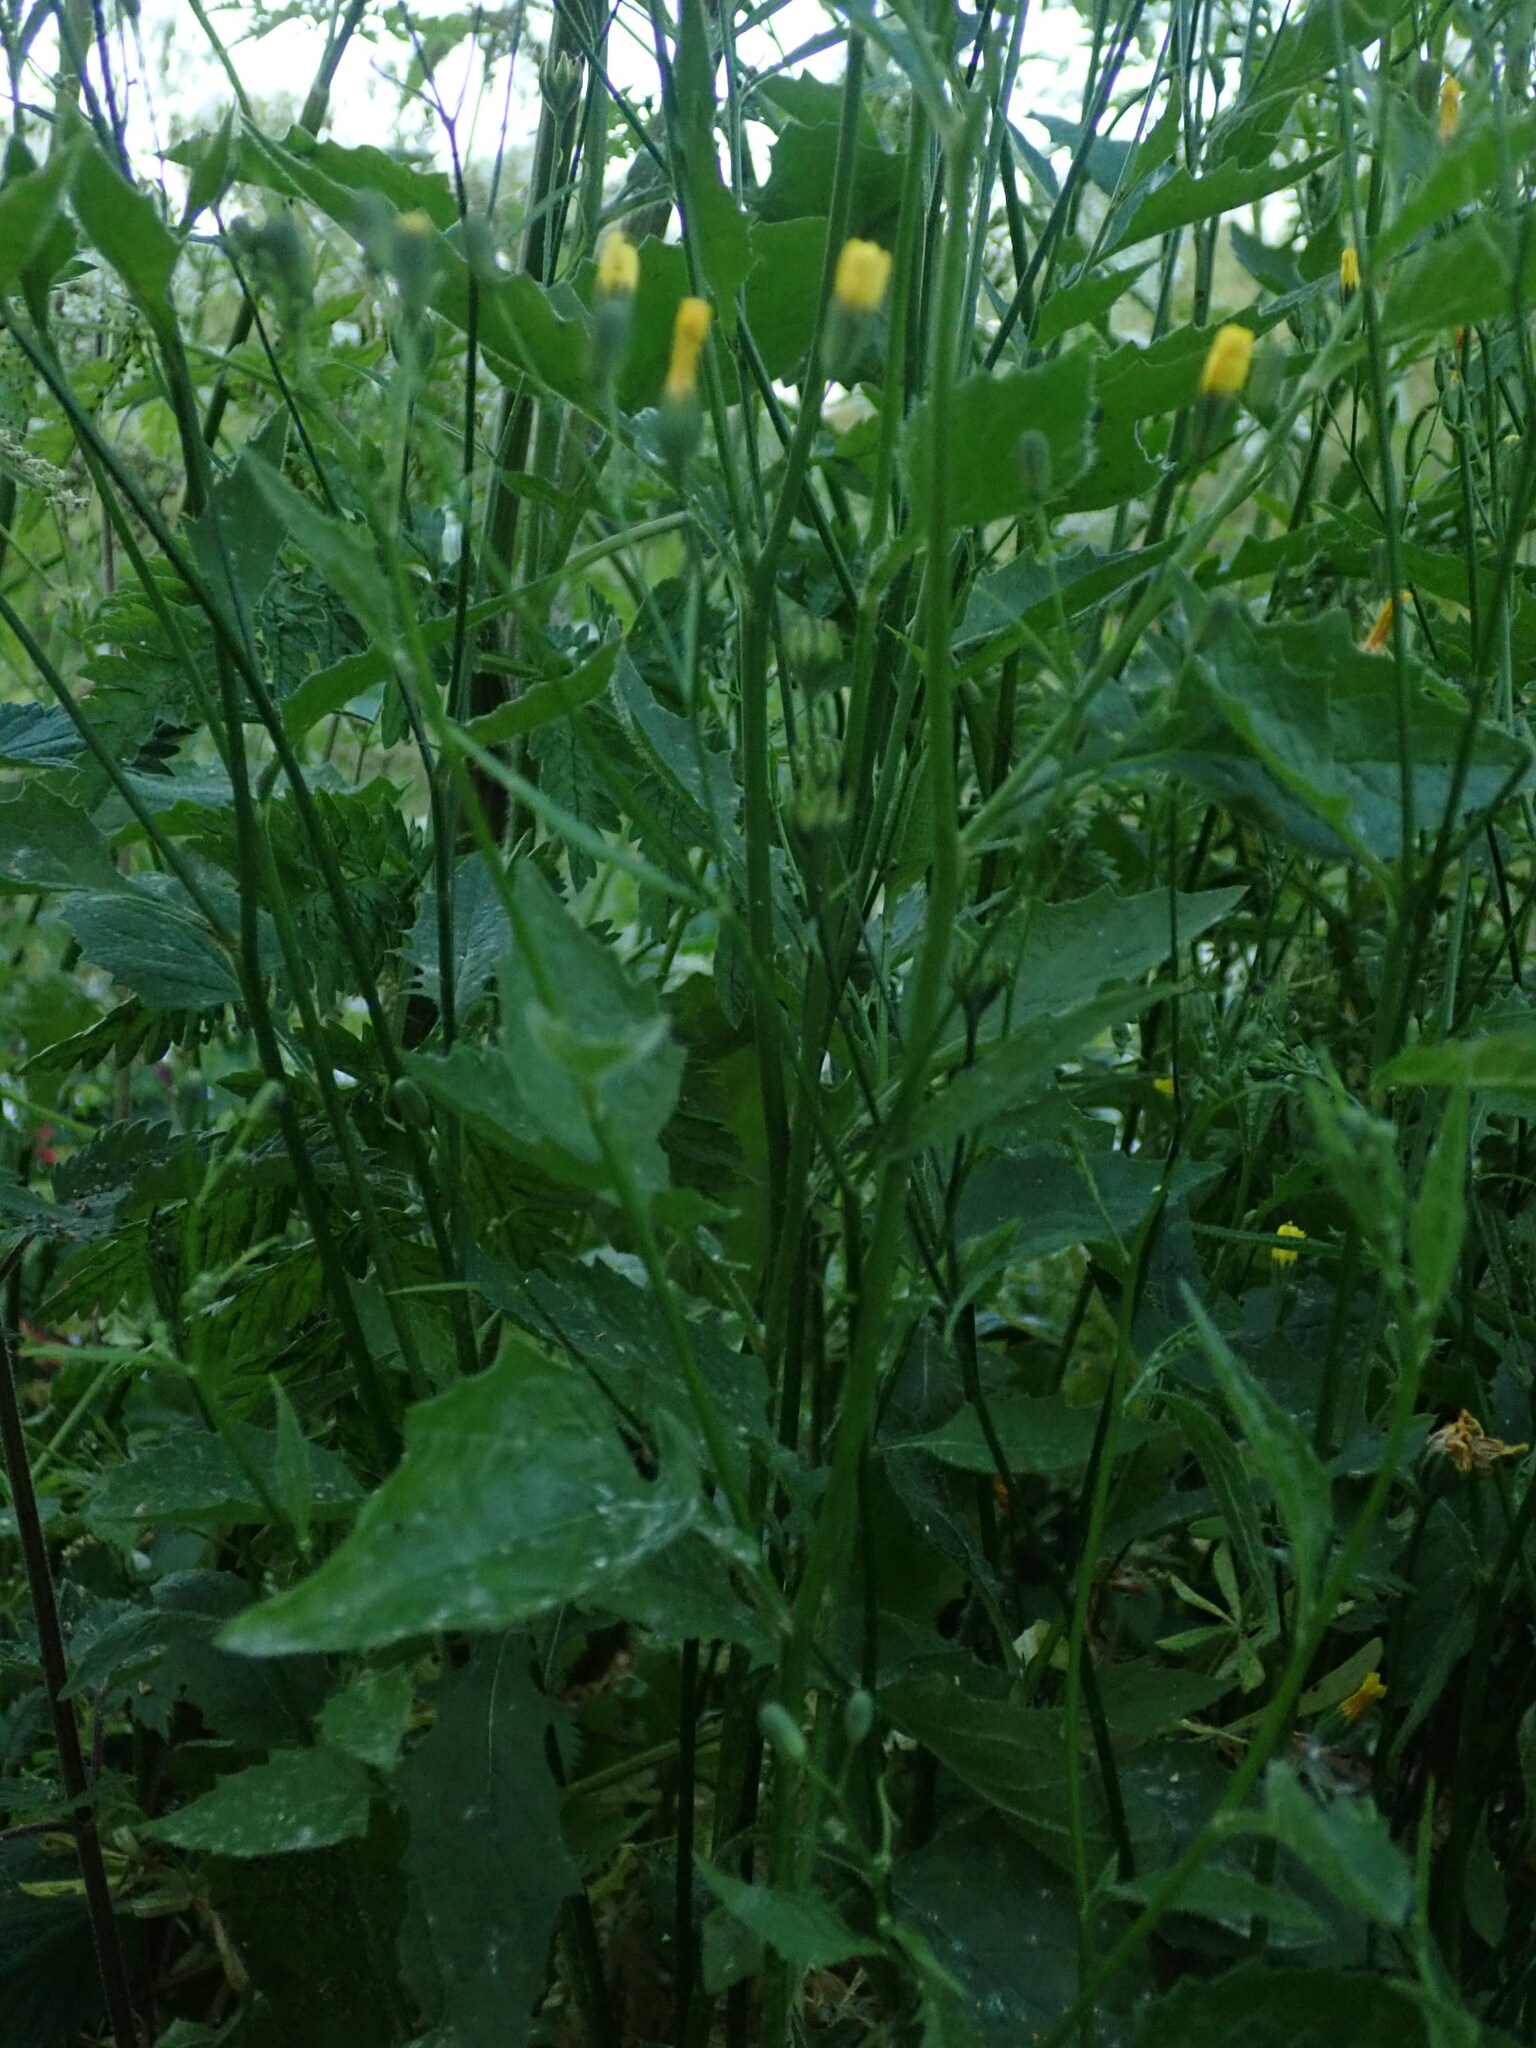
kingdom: Plantae
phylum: Tracheophyta
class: Magnoliopsida
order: Asterales
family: Asteraceae
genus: Lapsana
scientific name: Lapsana communis
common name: Nipplewort
